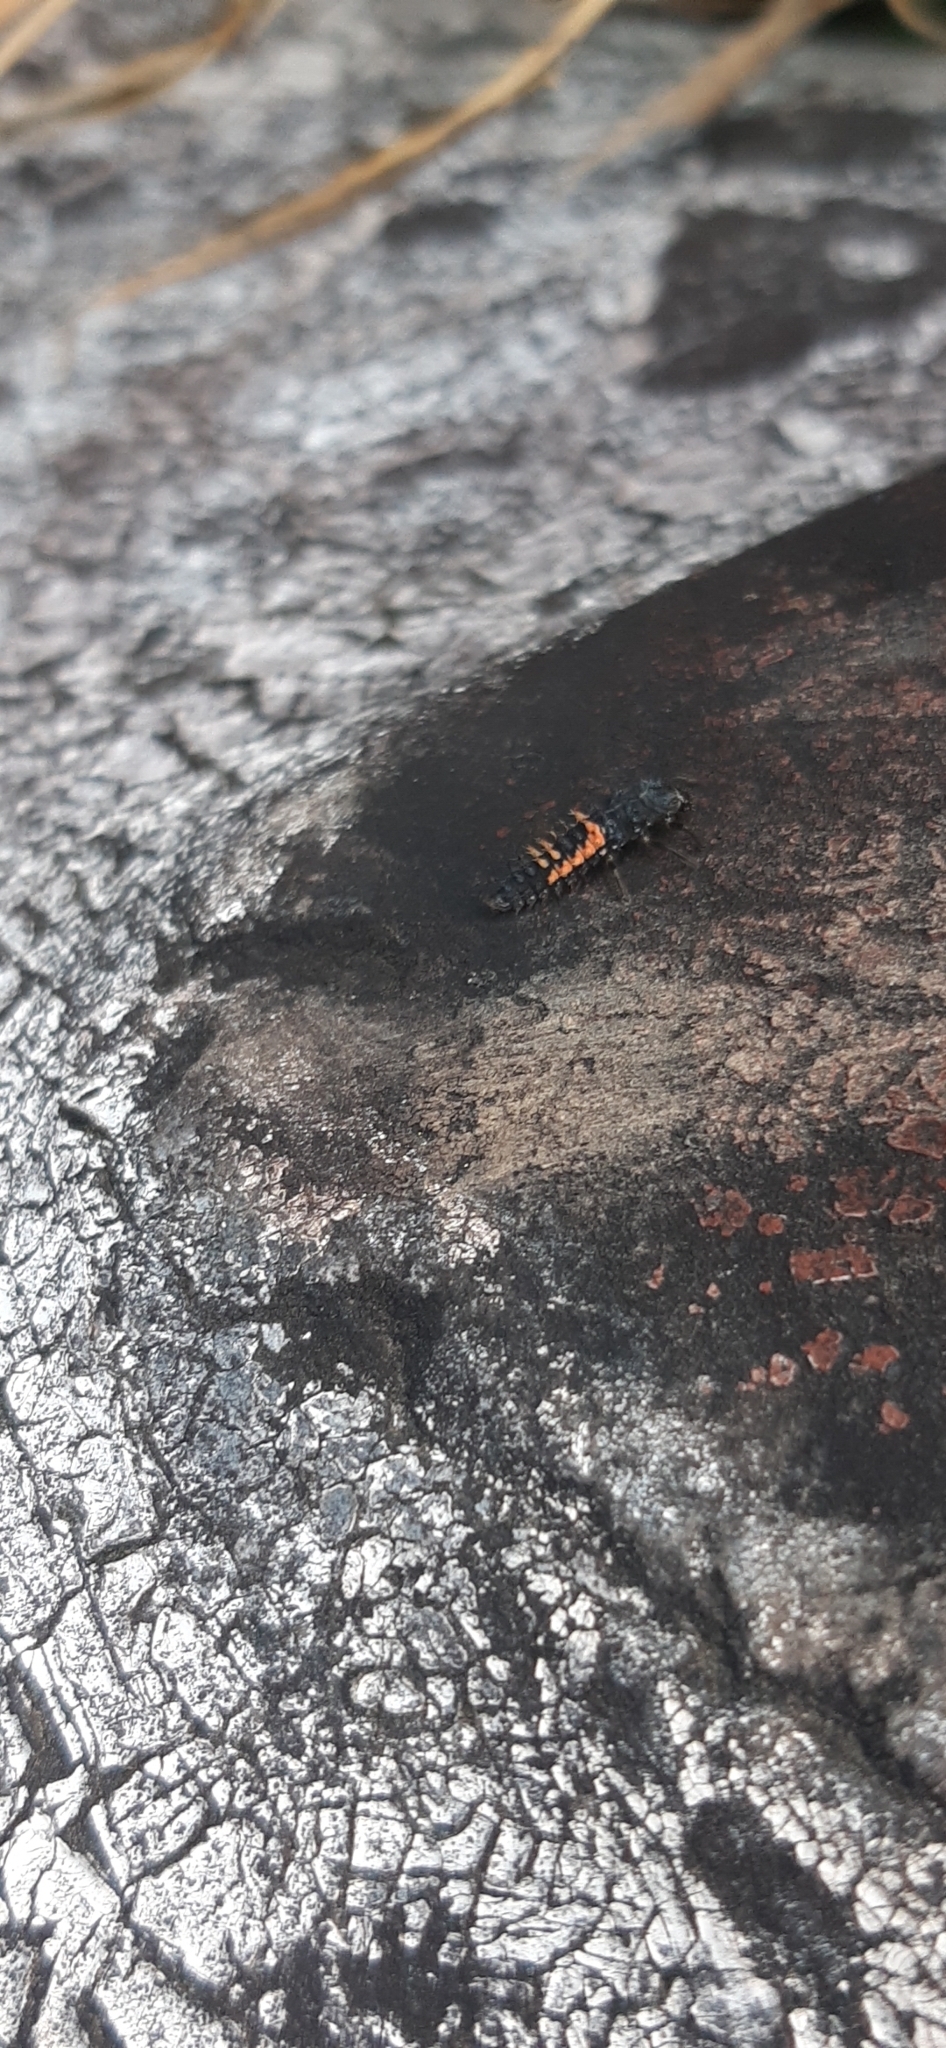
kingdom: Animalia
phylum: Arthropoda
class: Insecta
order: Coleoptera
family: Coccinellidae
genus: Harmonia
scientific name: Harmonia axyridis
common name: Harlequin ladybird
